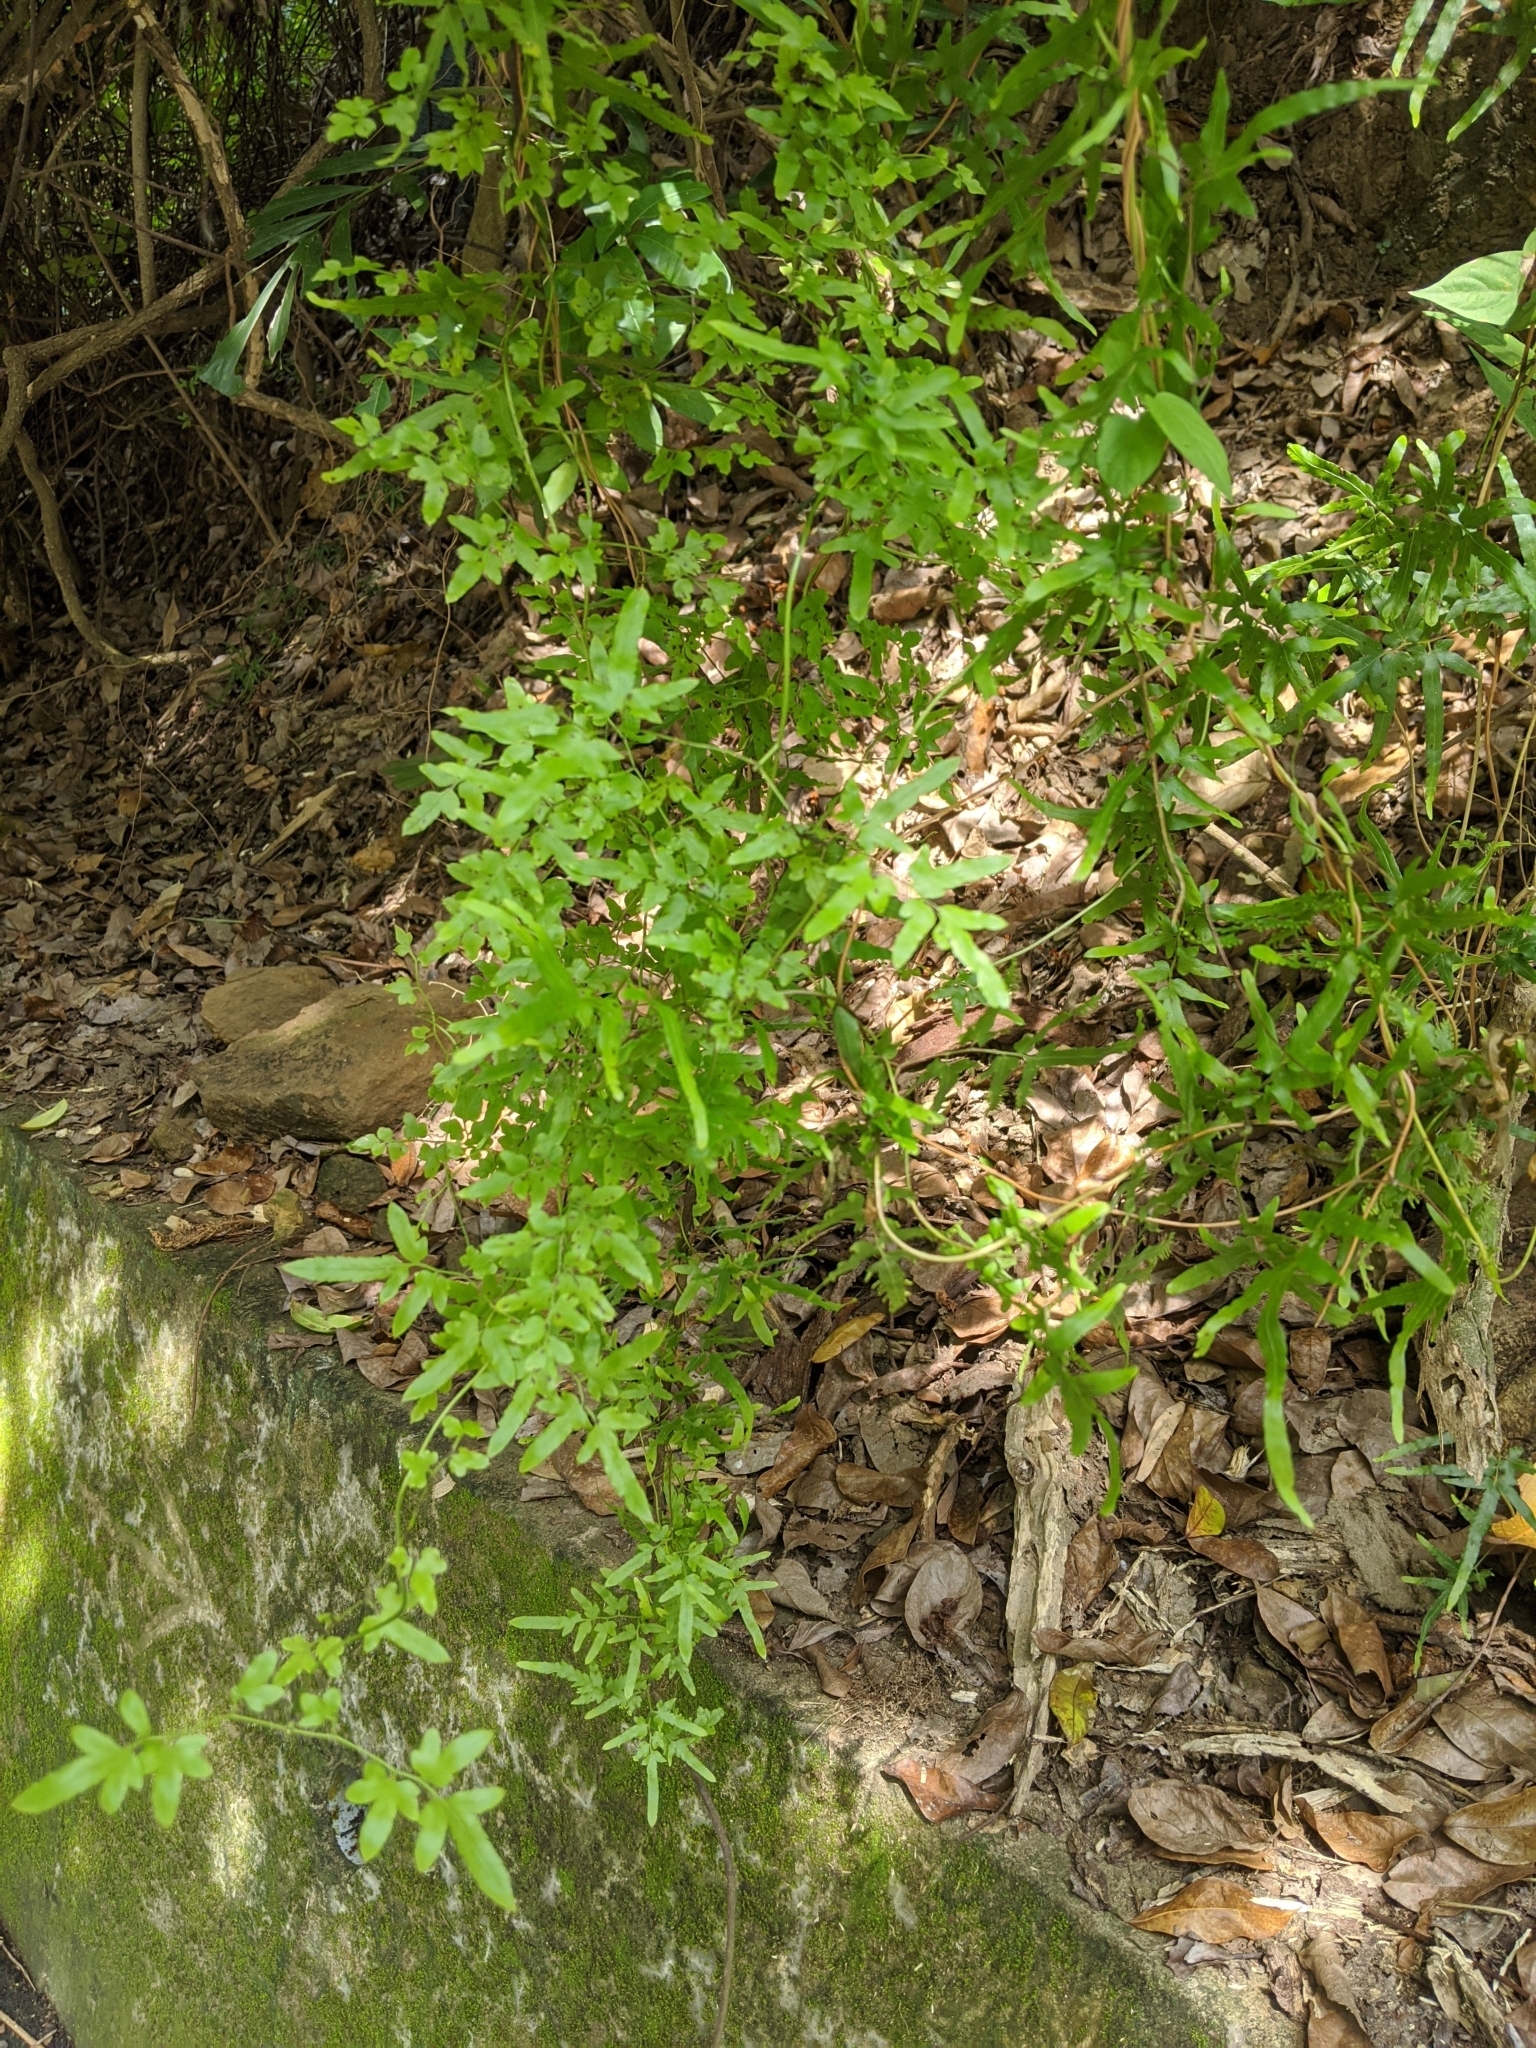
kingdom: Plantae
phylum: Tracheophyta
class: Polypodiopsida
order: Schizaeales
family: Lygodiaceae
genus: Lygodium
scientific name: Lygodium japonicum
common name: Japanese climbing fern
